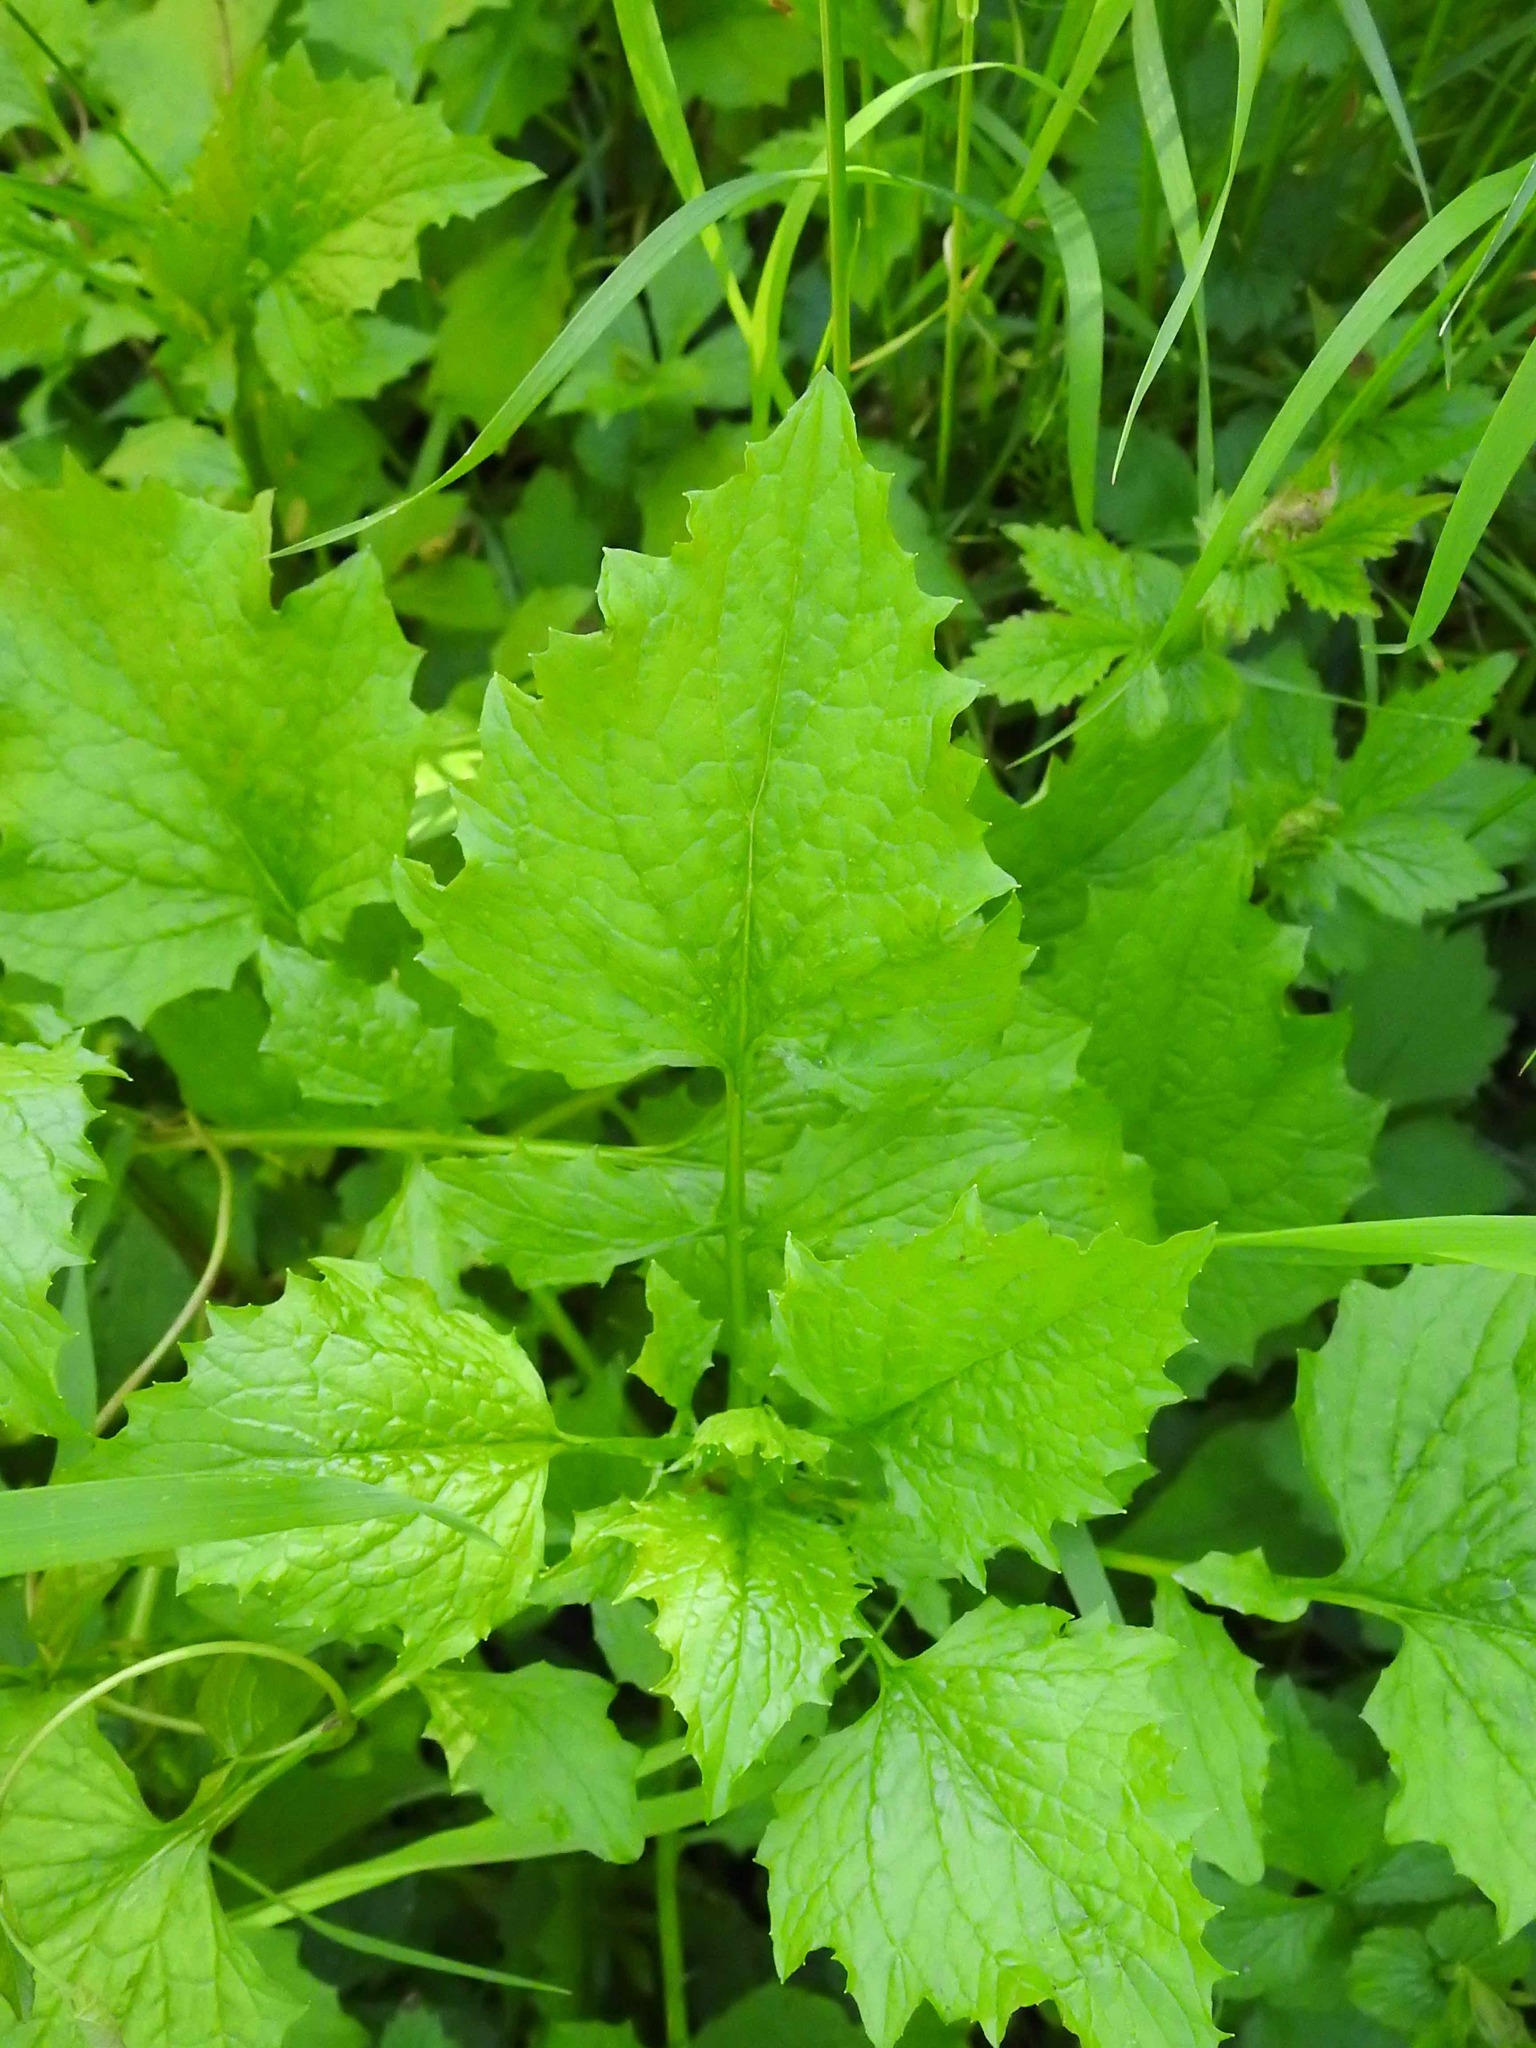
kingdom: Plantae
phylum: Tracheophyta
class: Magnoliopsida
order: Asterales
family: Asteraceae
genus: Lapsana
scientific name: Lapsana communis
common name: Nipplewort
